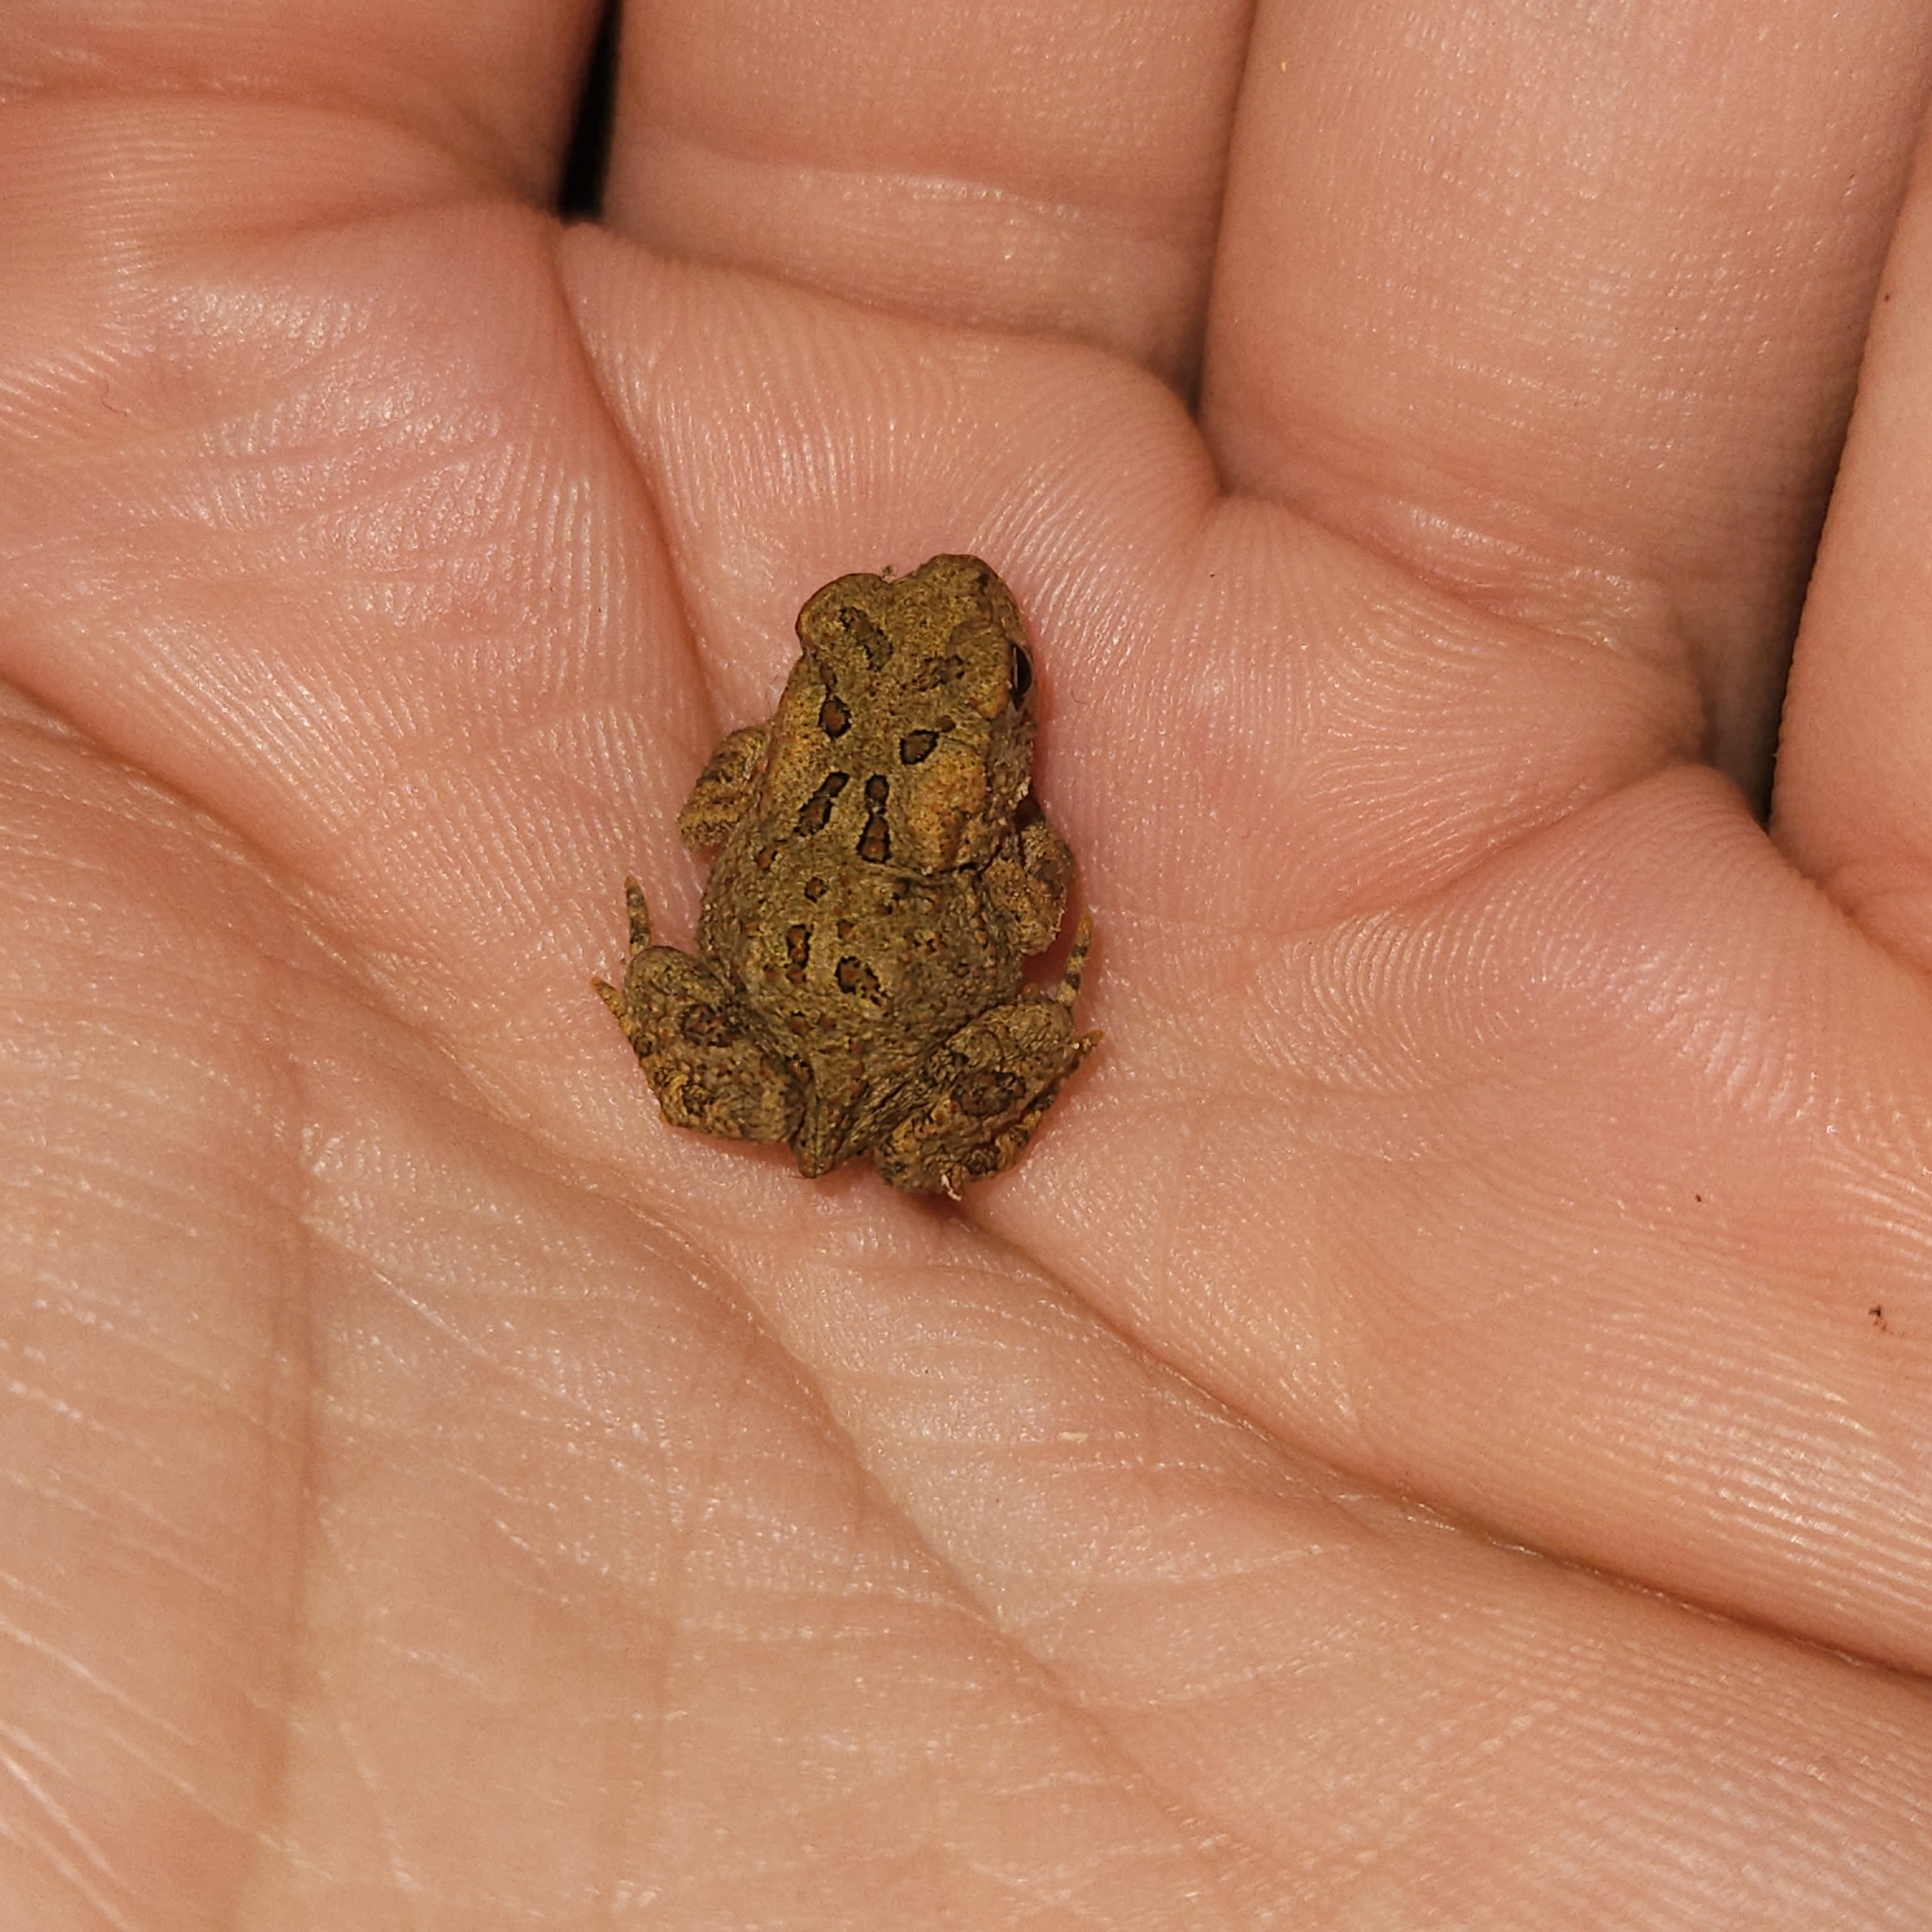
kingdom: Animalia
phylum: Chordata
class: Amphibia
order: Anura
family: Bufonidae
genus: Anaxyrus
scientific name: Anaxyrus americanus
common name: American toad
